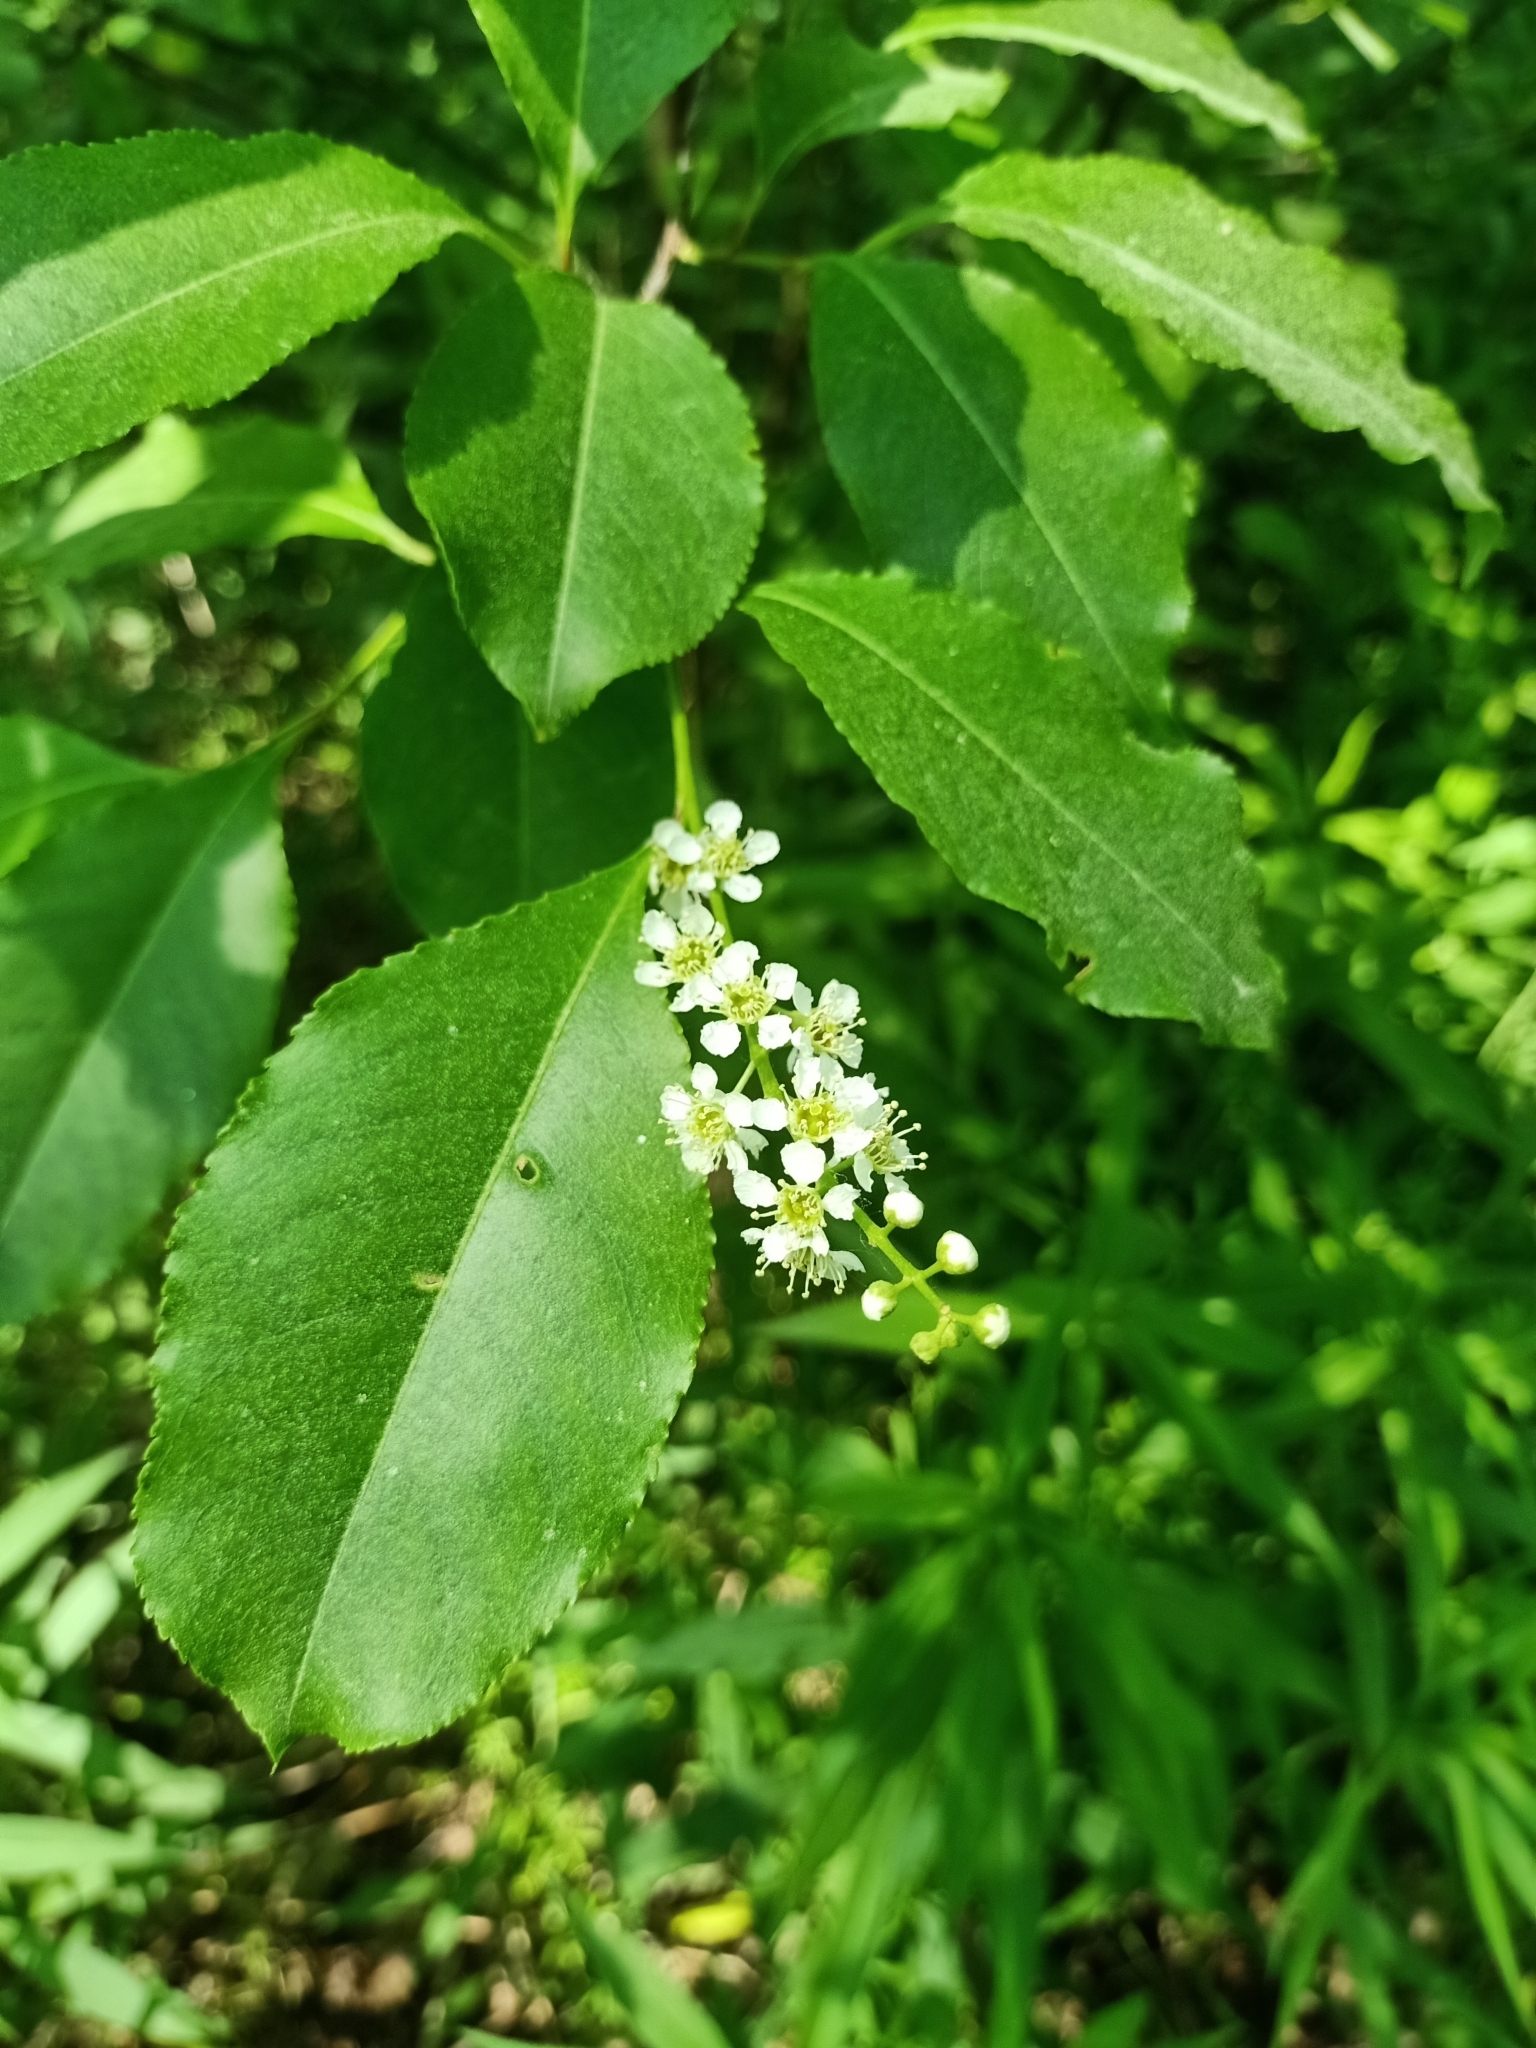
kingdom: Plantae
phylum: Tracheophyta
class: Magnoliopsida
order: Rosales
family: Rosaceae
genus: Prunus
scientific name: Prunus serotina
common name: Black cherry
